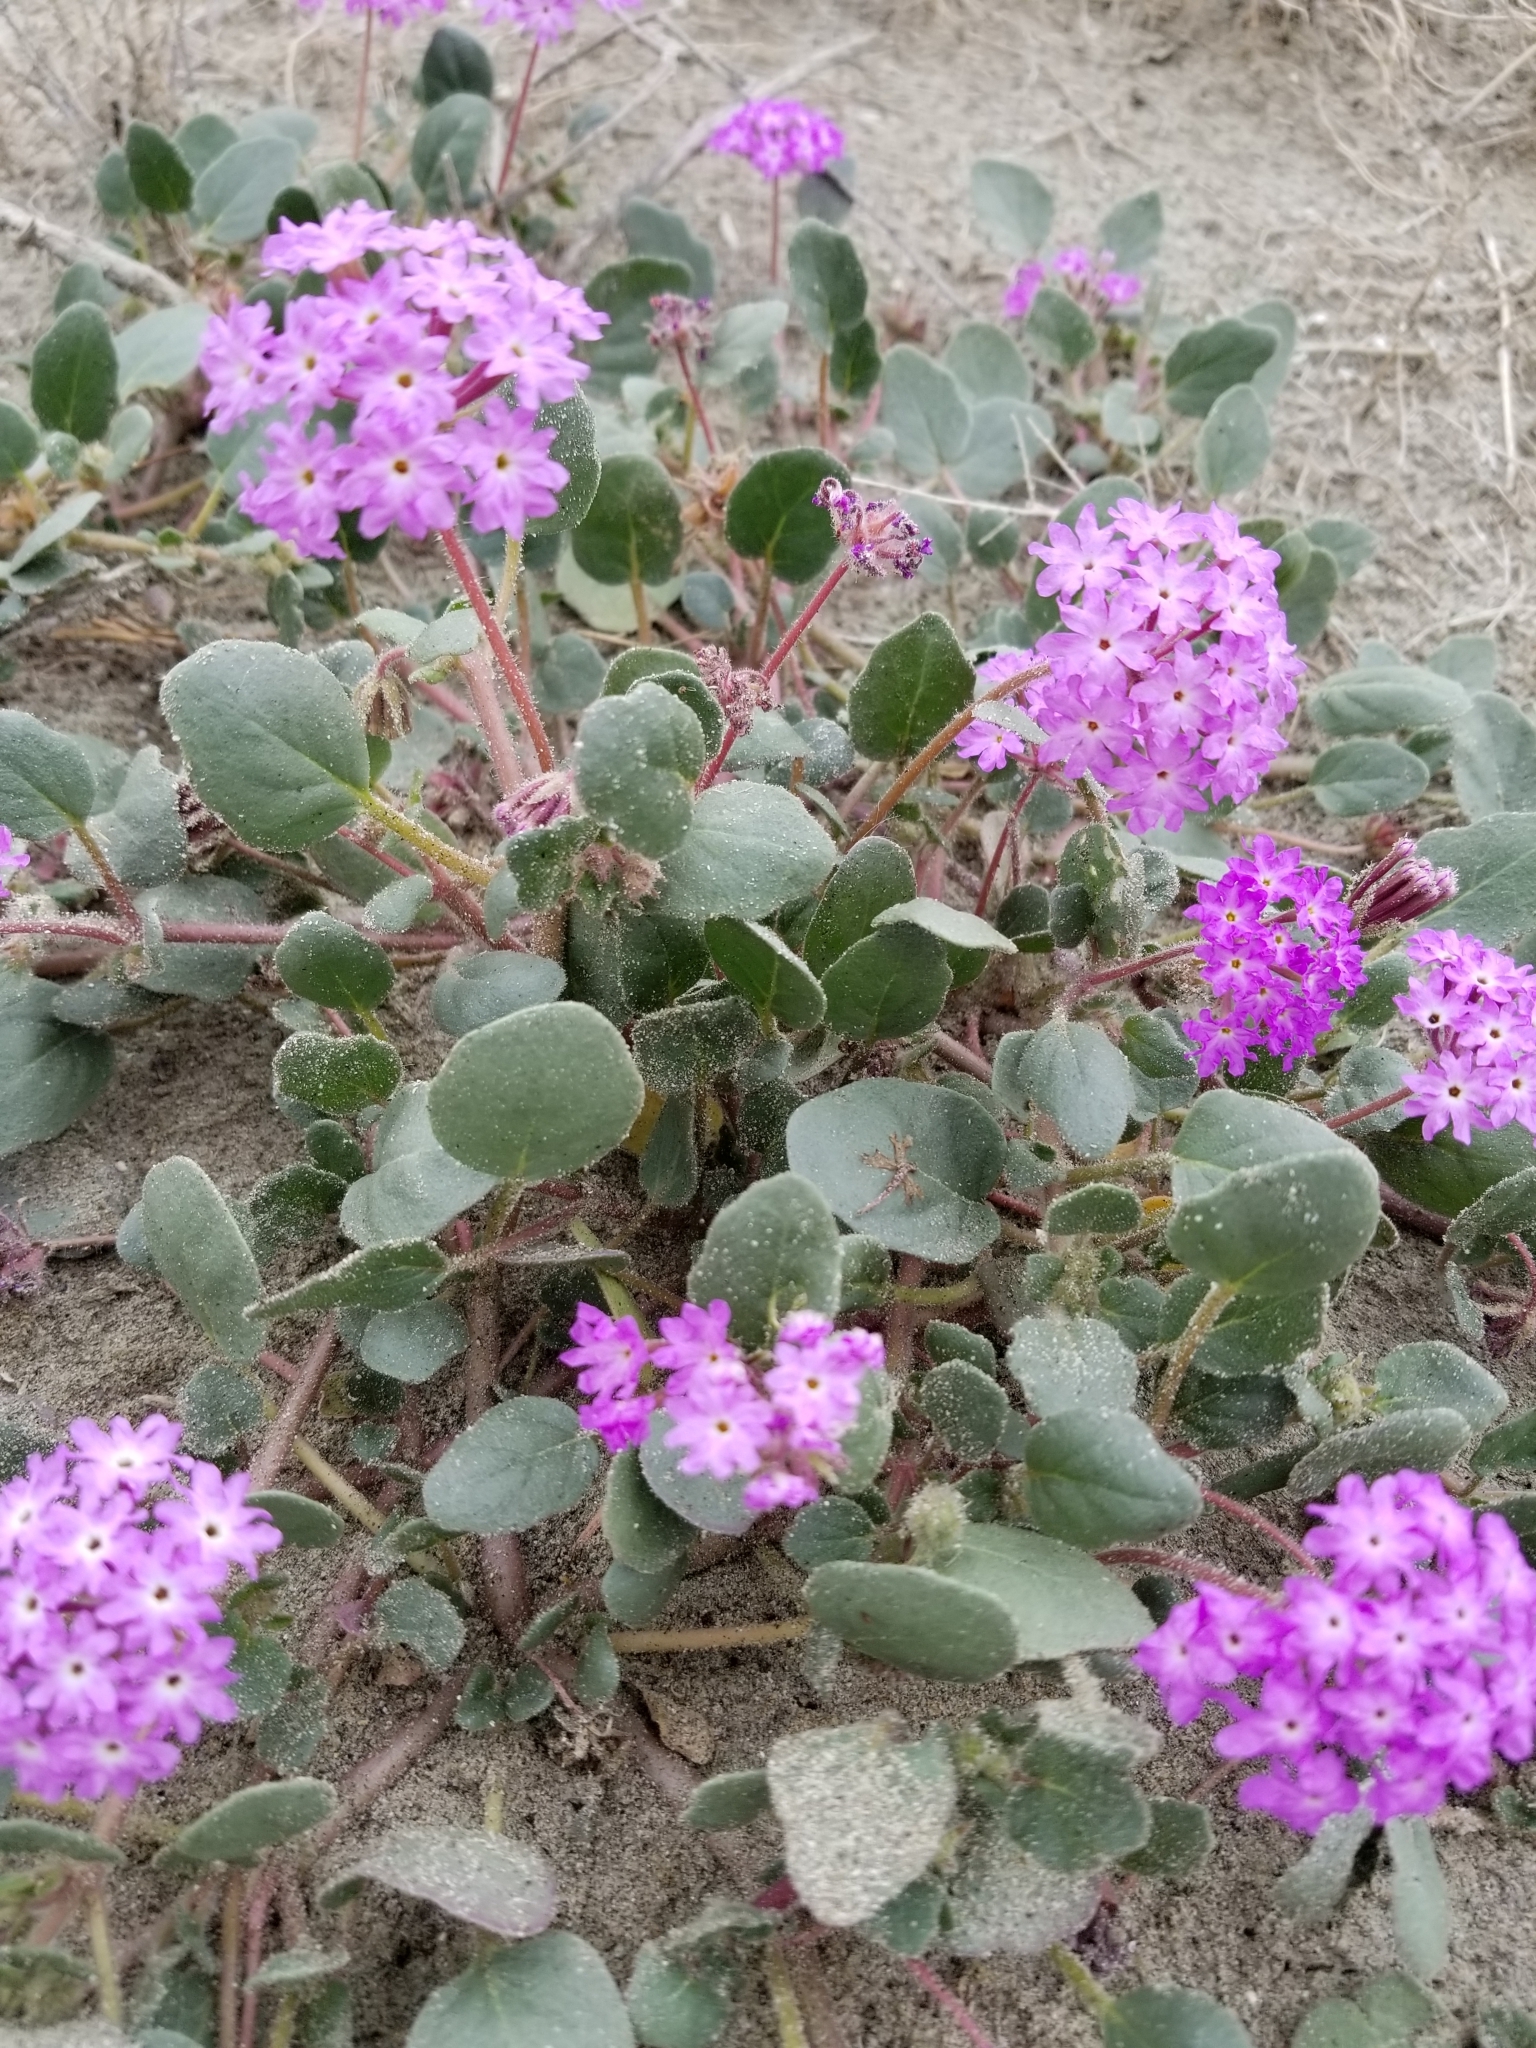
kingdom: Plantae
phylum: Tracheophyta
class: Magnoliopsida
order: Caryophyllales
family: Nyctaginaceae
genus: Abronia
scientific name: Abronia villosa
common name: Desert sand-verbena
